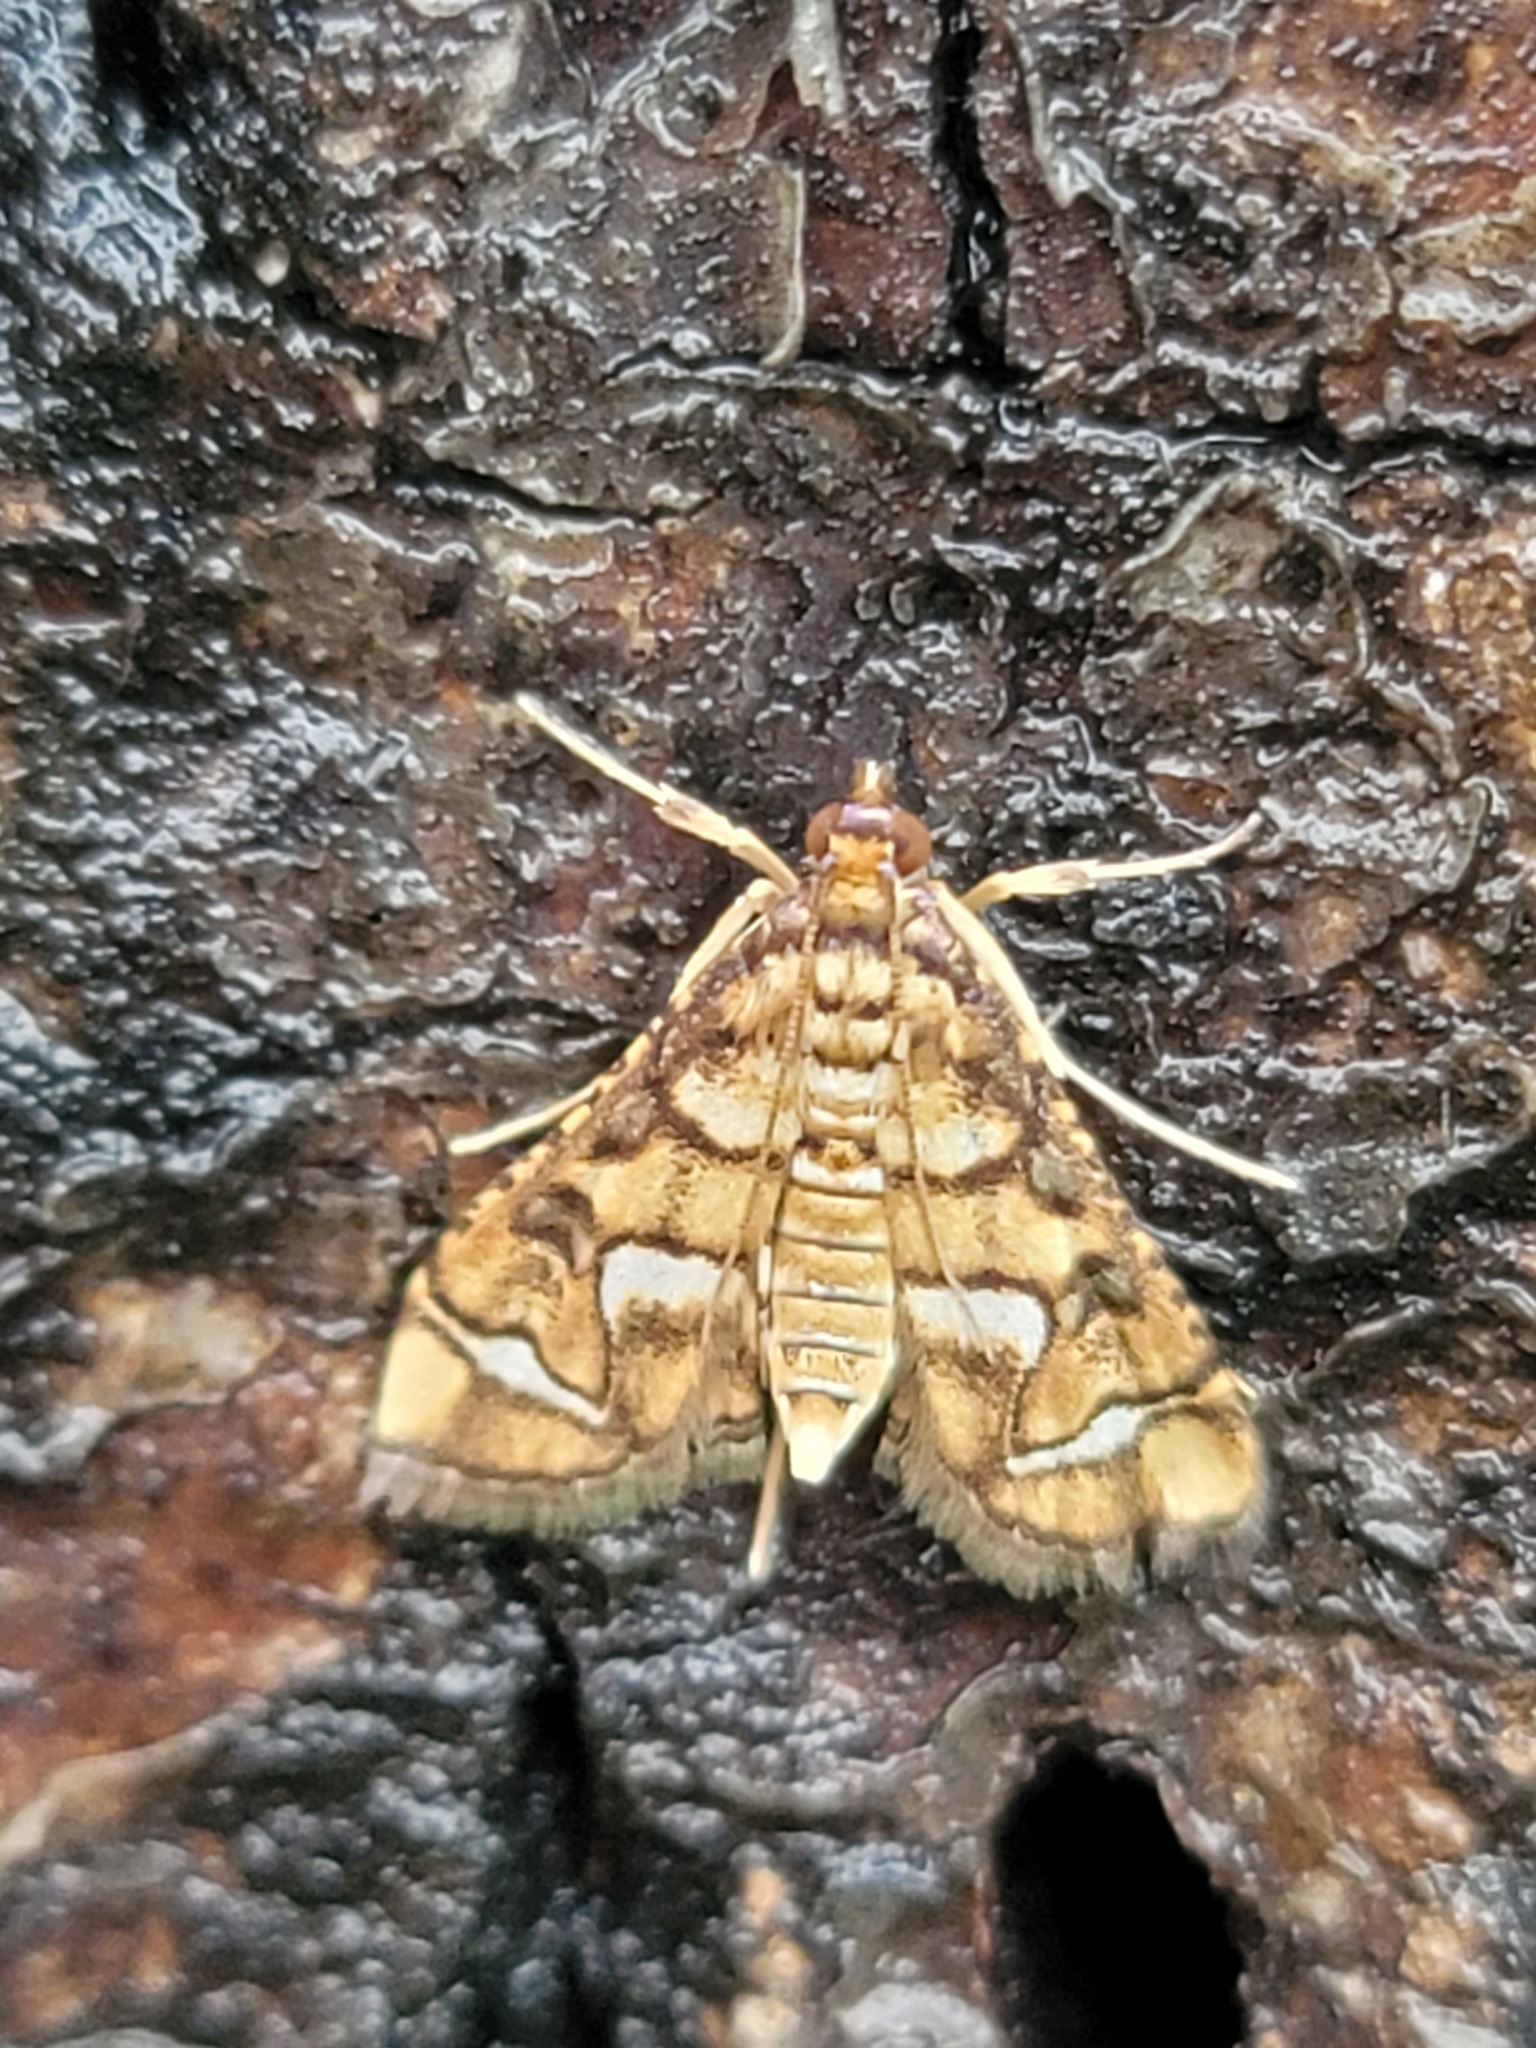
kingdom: Animalia
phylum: Arthropoda
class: Insecta
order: Lepidoptera
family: Crambidae
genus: Hileithia
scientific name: Hileithia magualis
